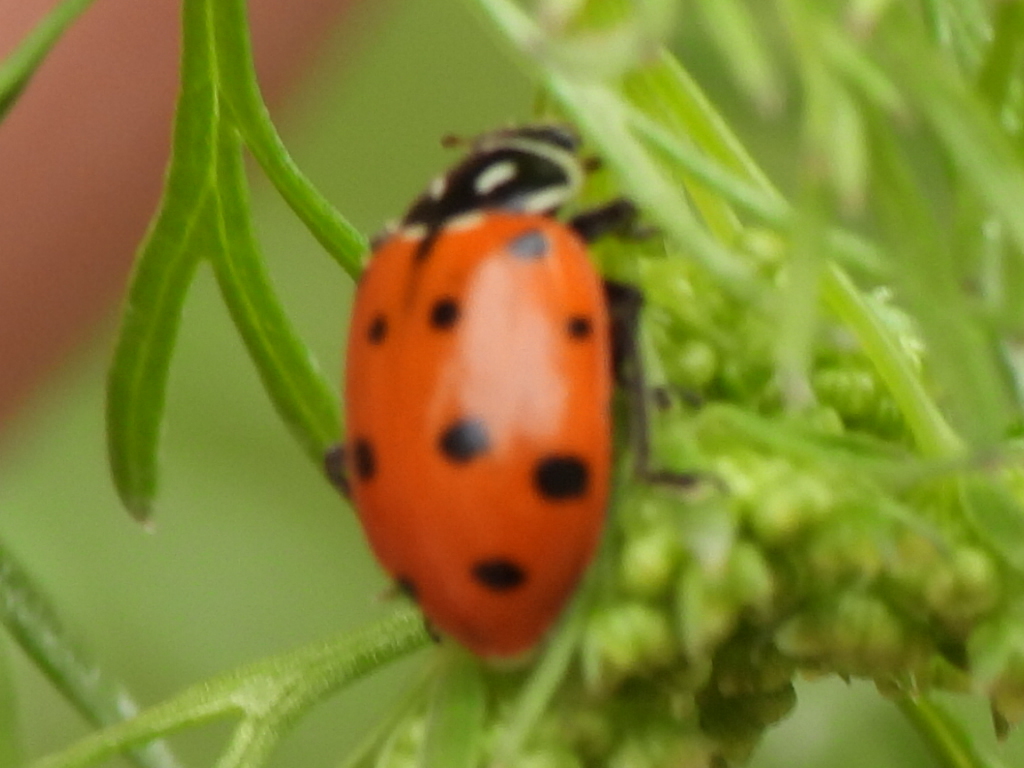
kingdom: Animalia
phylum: Arthropoda
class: Insecta
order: Coleoptera
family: Coccinellidae
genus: Hippodamia
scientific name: Hippodamia convergens
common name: Convergent lady beetle
